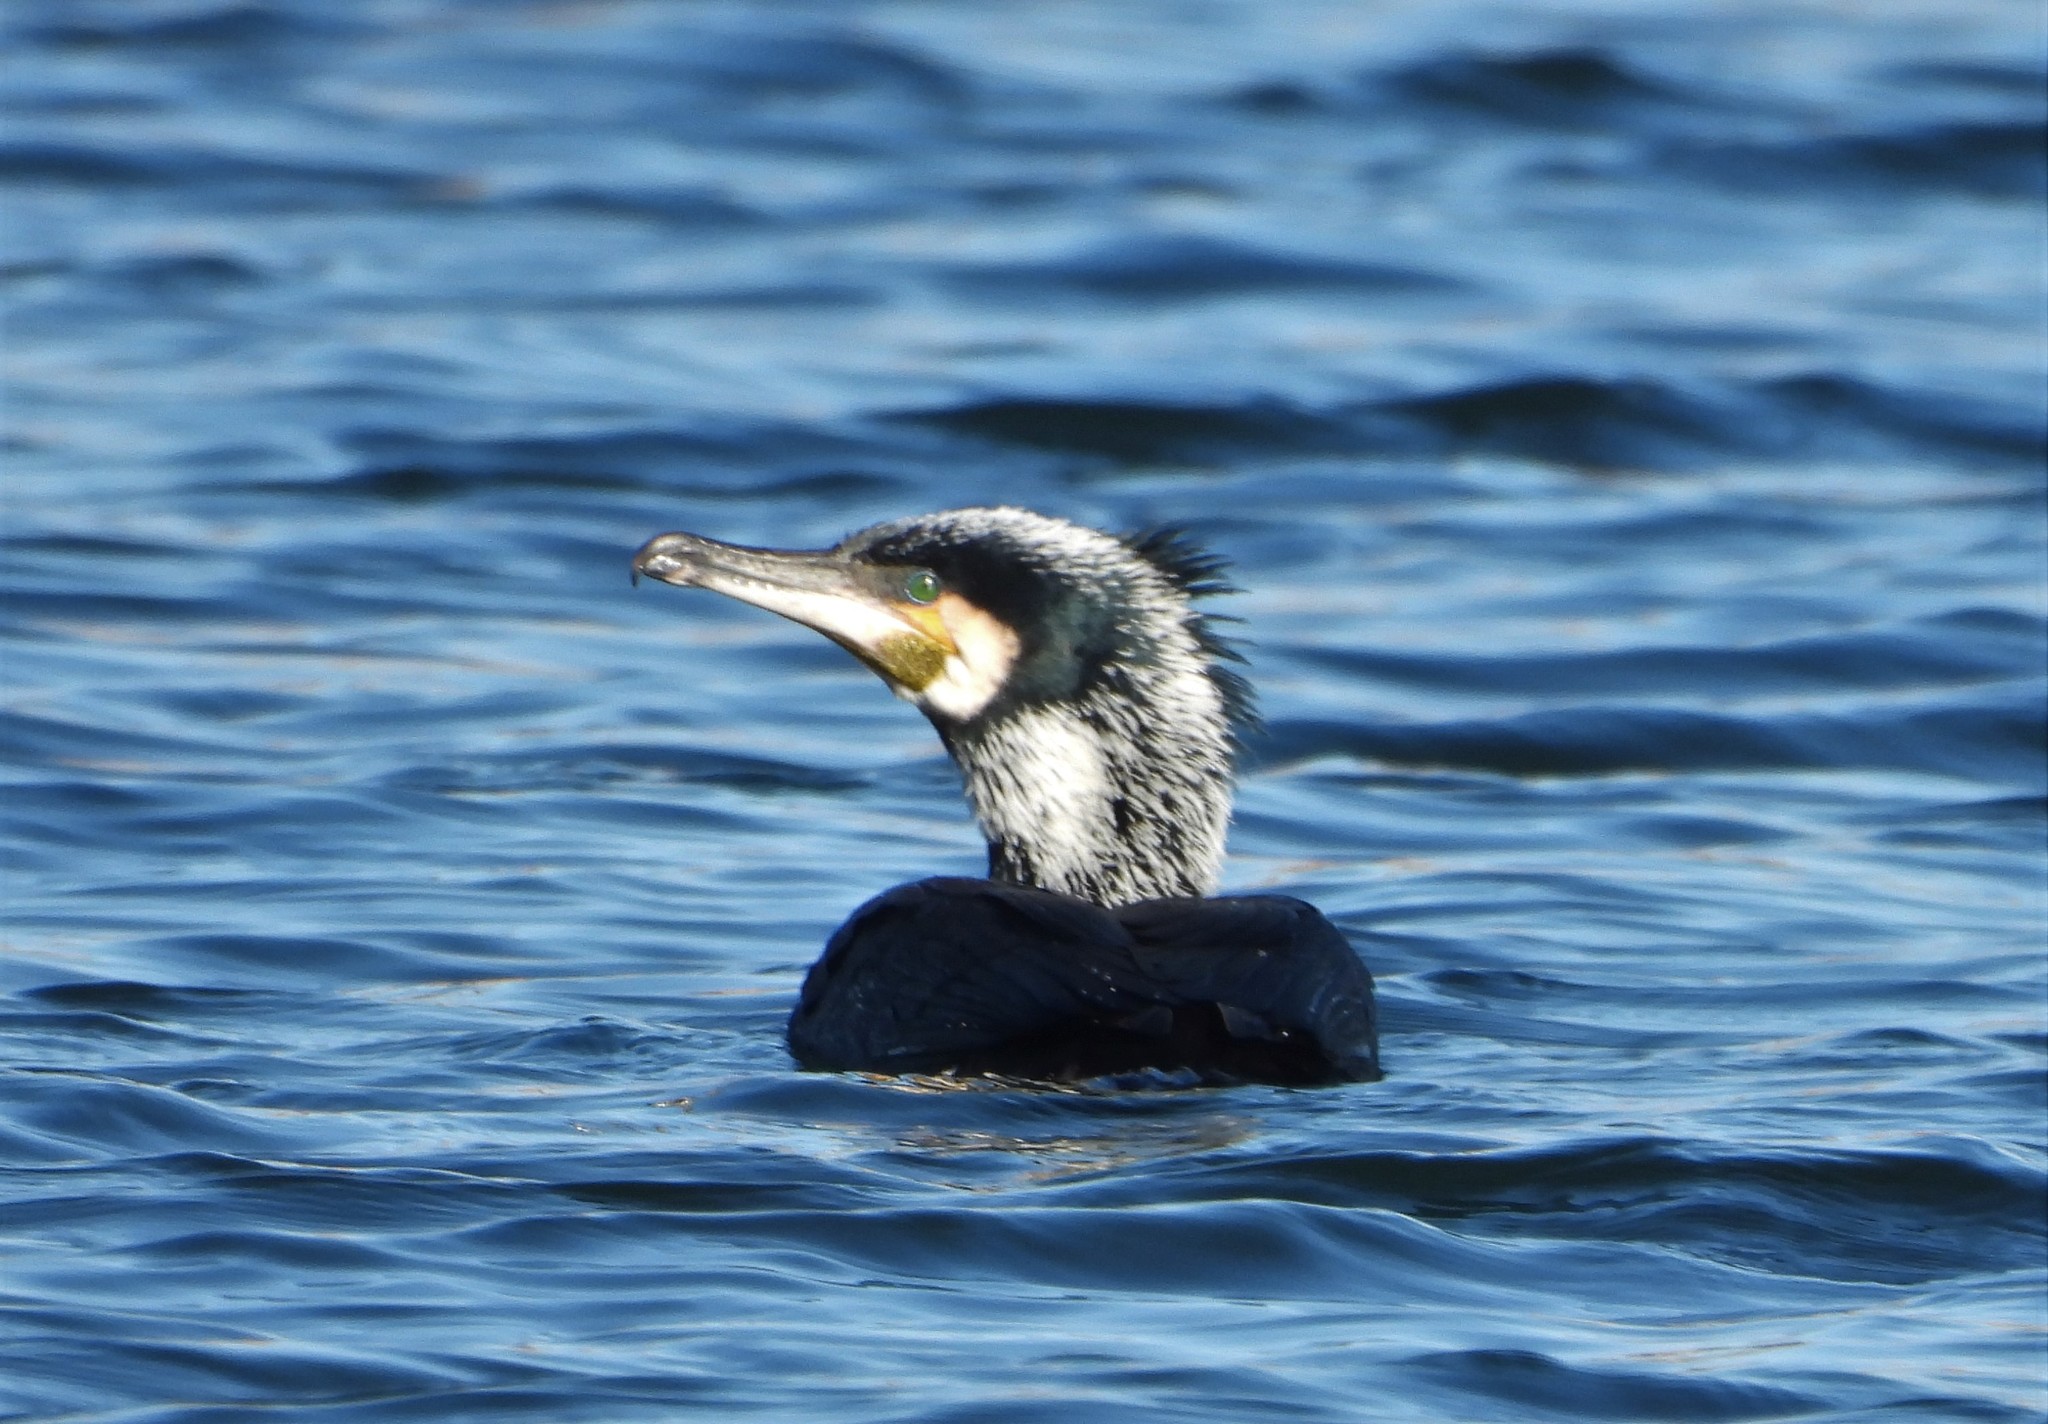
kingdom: Animalia
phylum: Chordata
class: Aves
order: Suliformes
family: Phalacrocoracidae
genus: Phalacrocorax
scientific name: Phalacrocorax carbo
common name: Great cormorant
